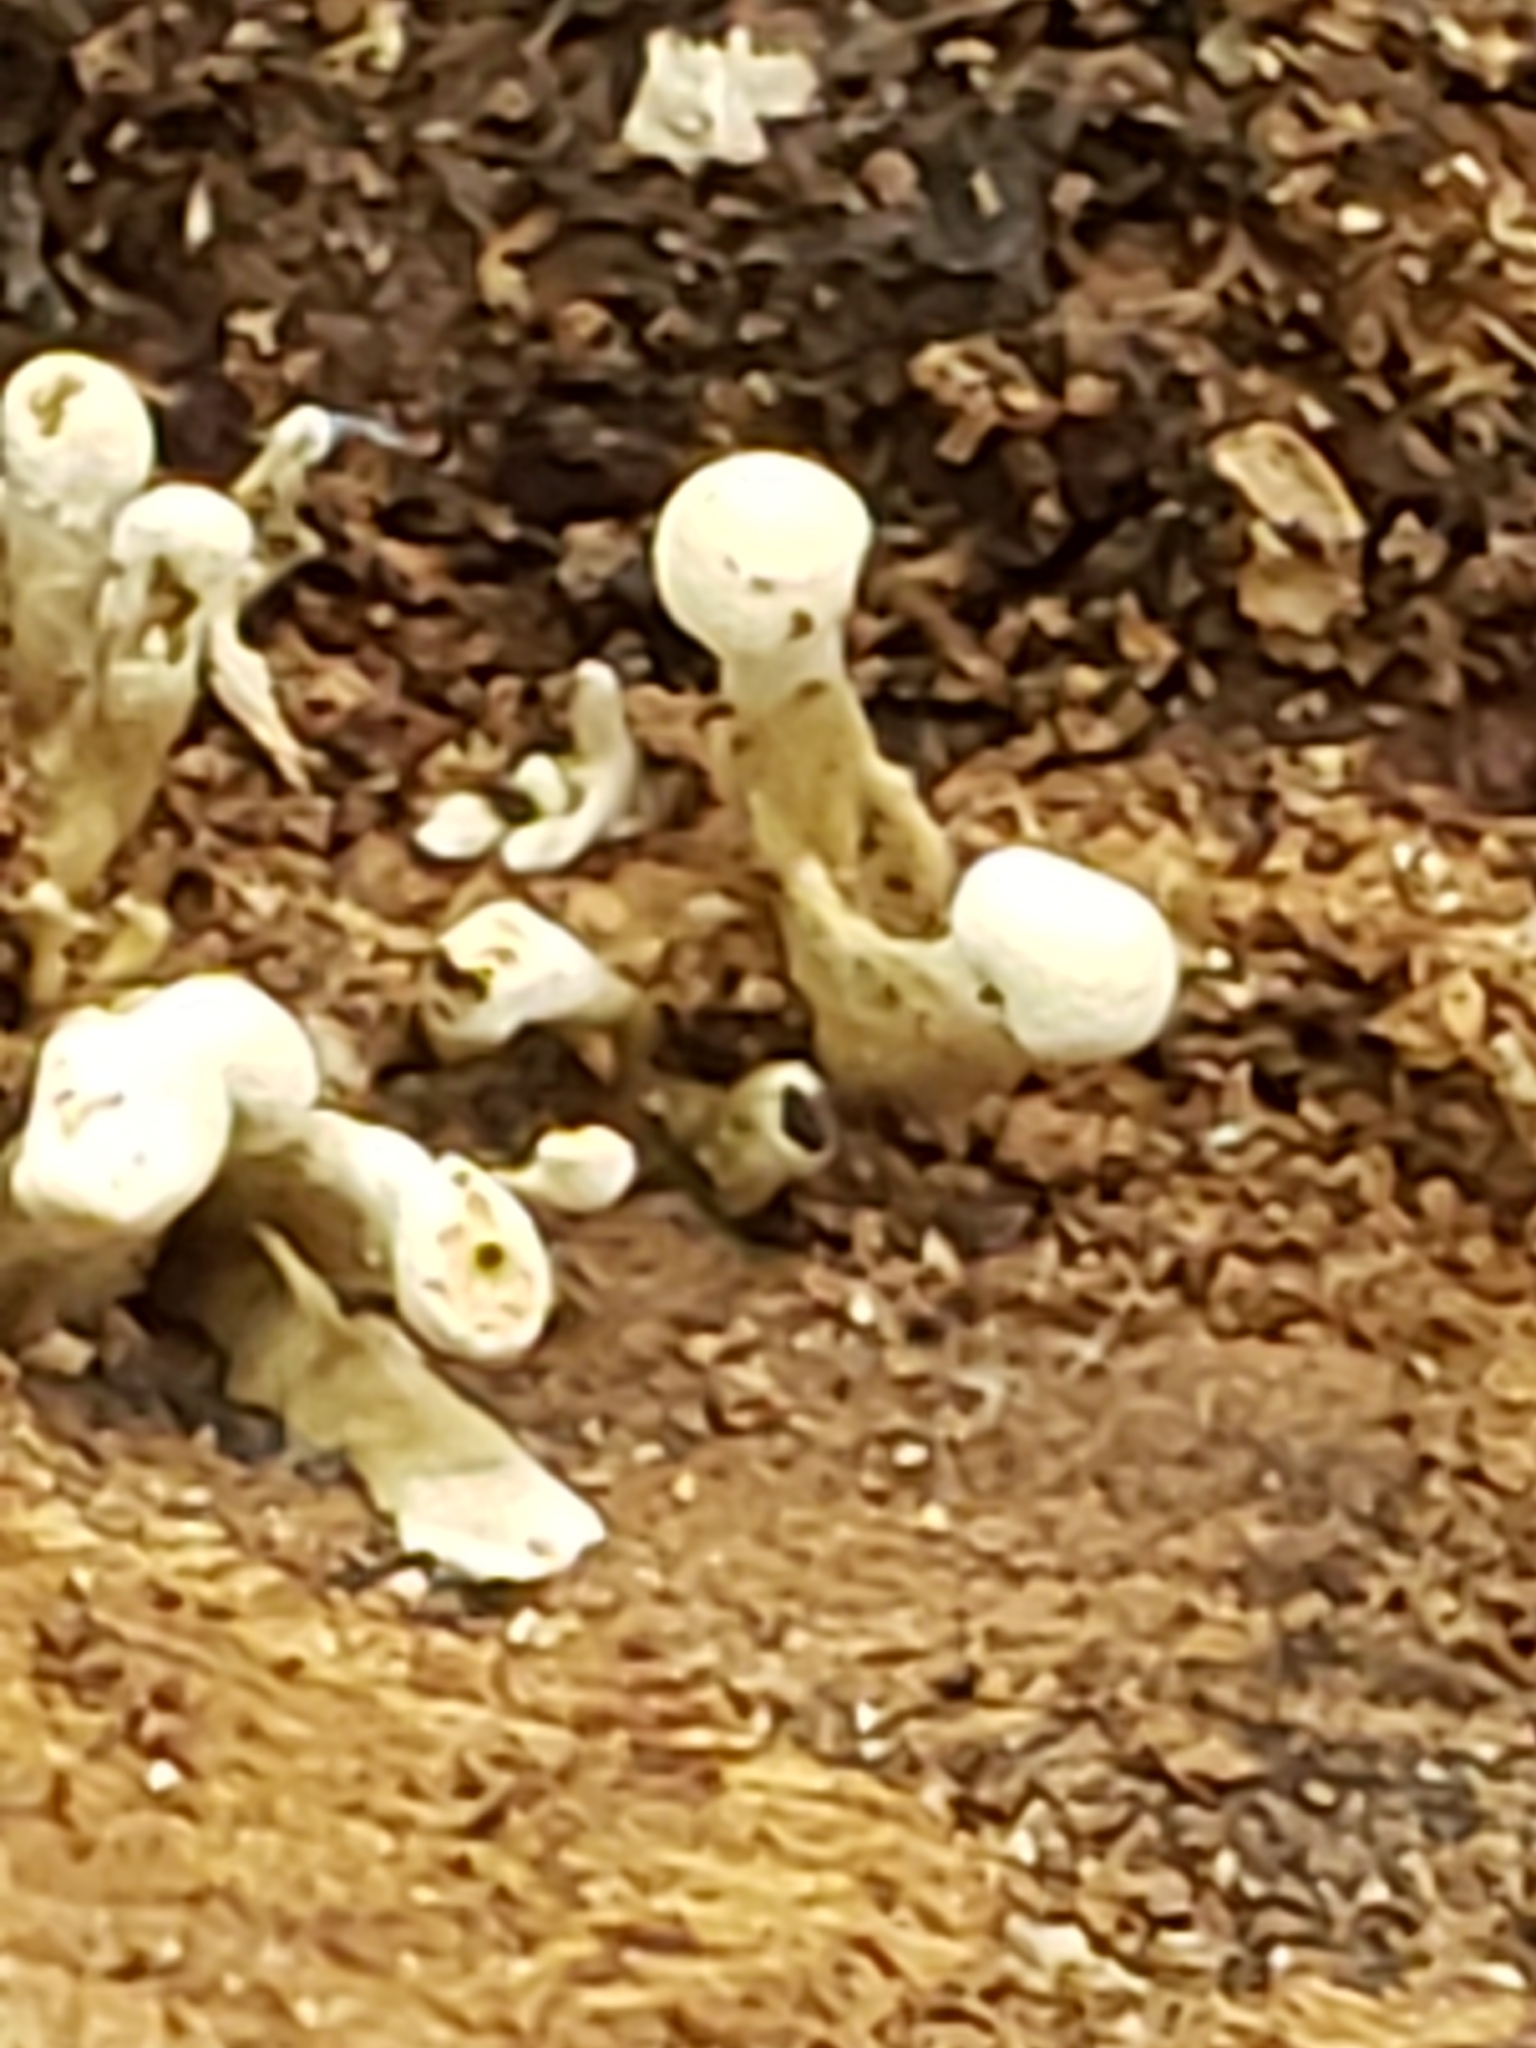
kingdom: Fungi
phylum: Basidiomycota
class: Atractiellomycetes
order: Atractiellales
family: Phleogenaceae
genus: Phleogena
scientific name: Phleogena faginea
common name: Fenugreek stalkball
